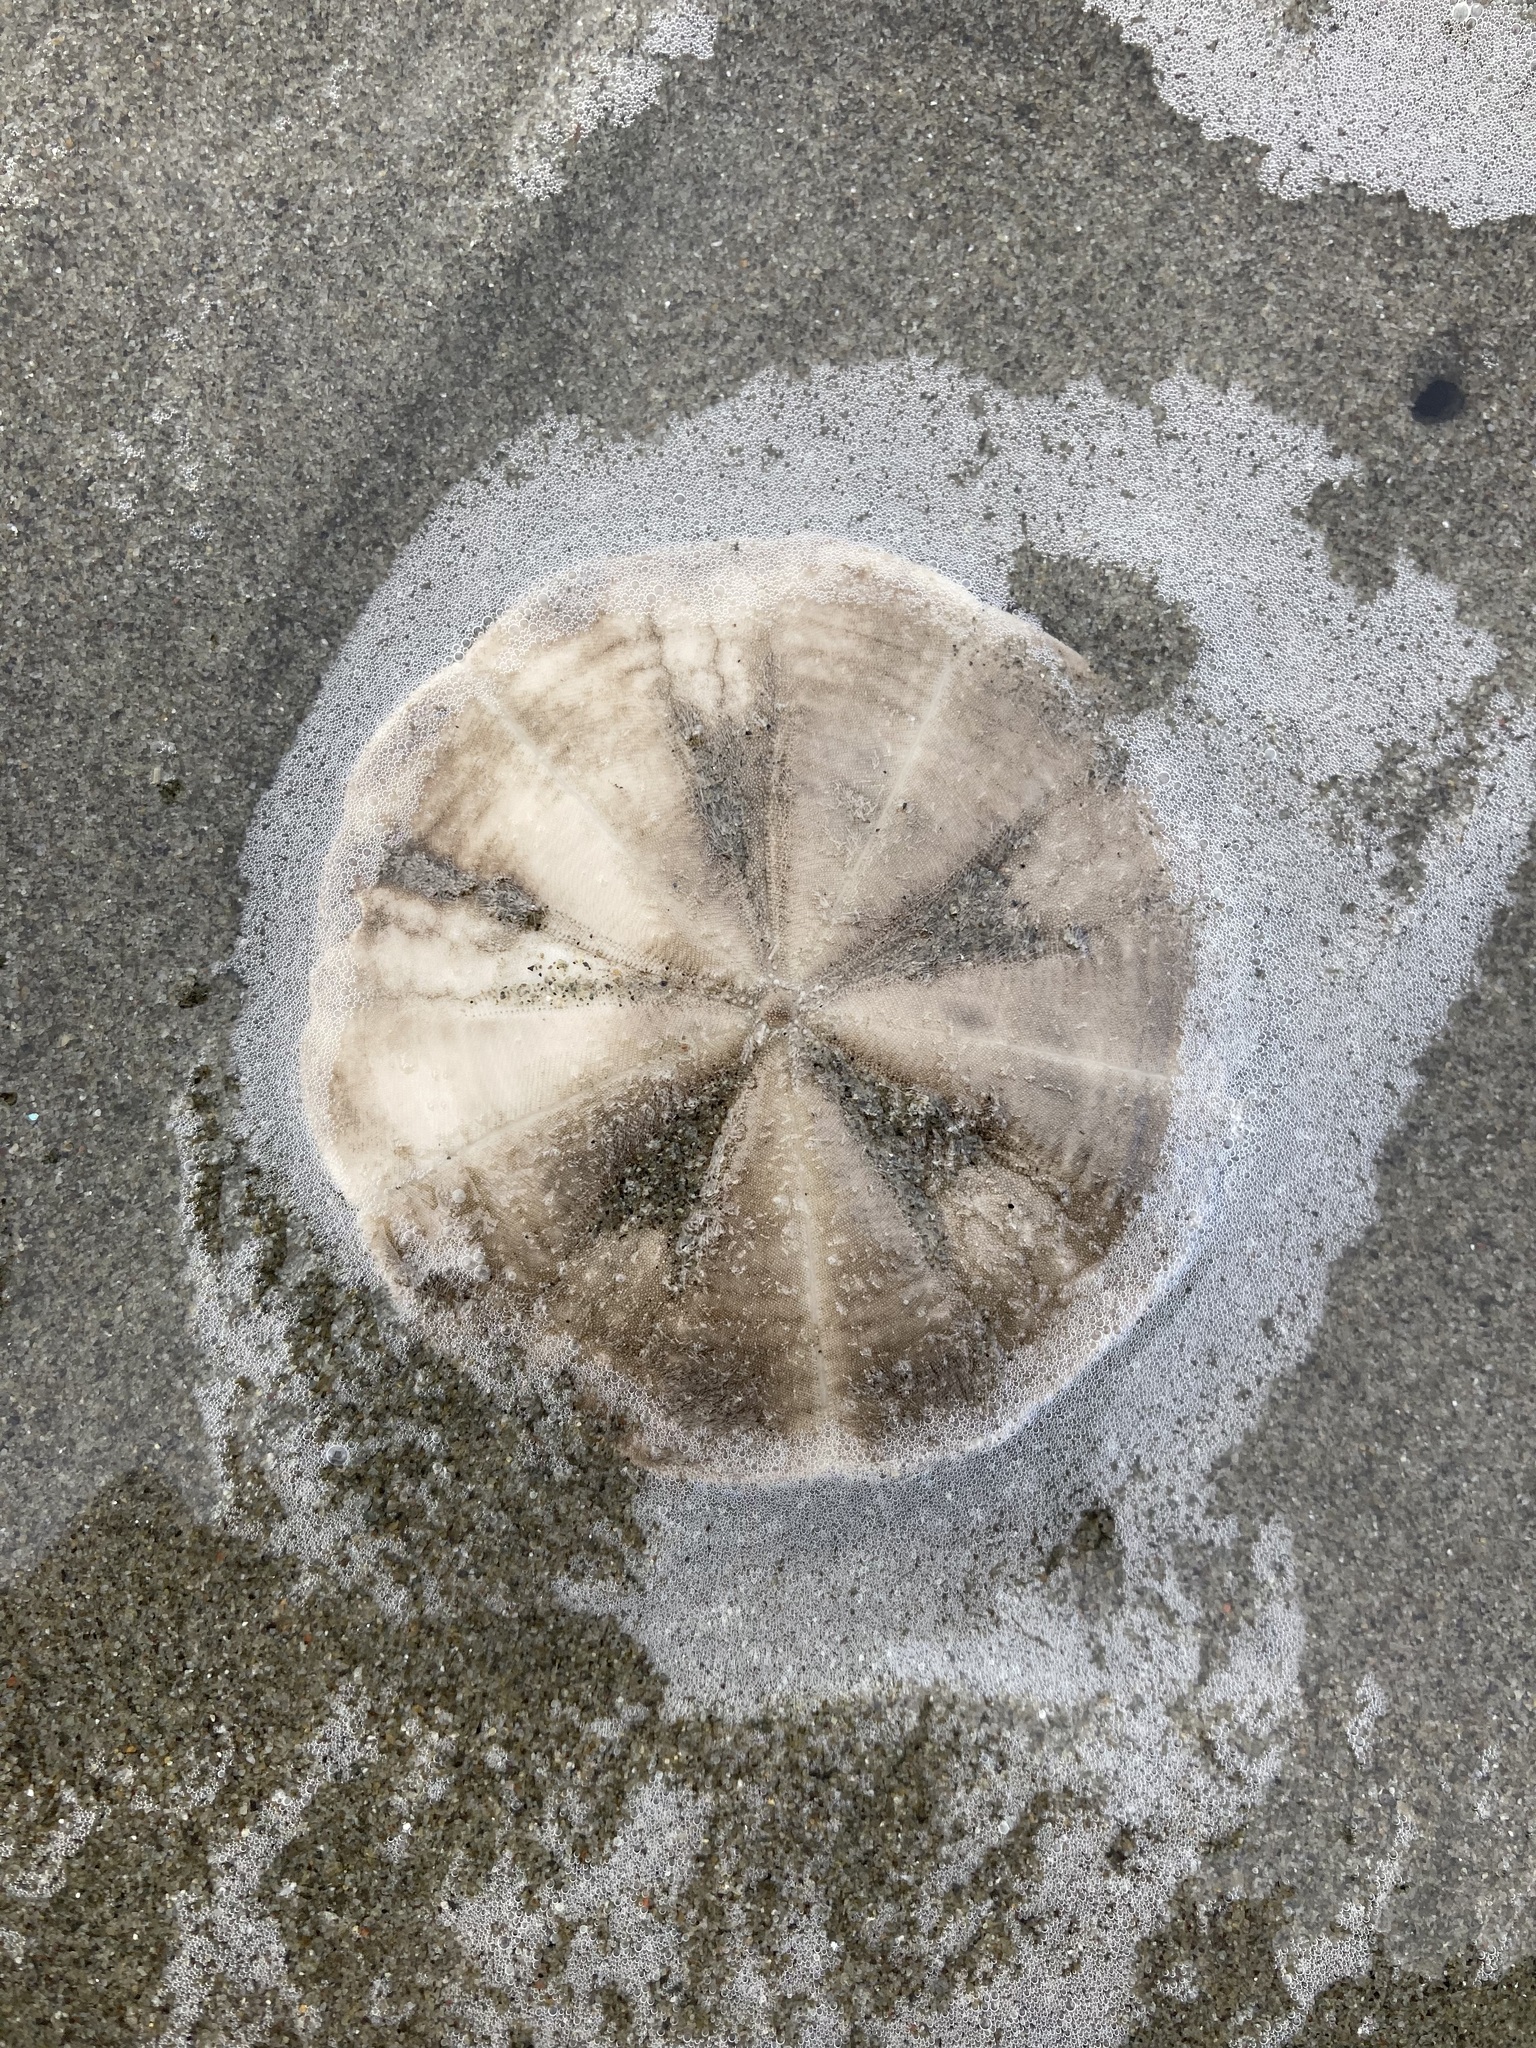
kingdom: Animalia
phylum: Echinodermata
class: Echinoidea
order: Clypeasteroida
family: Clypeasteridae
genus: Fellaster
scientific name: Fellaster zelandiae
